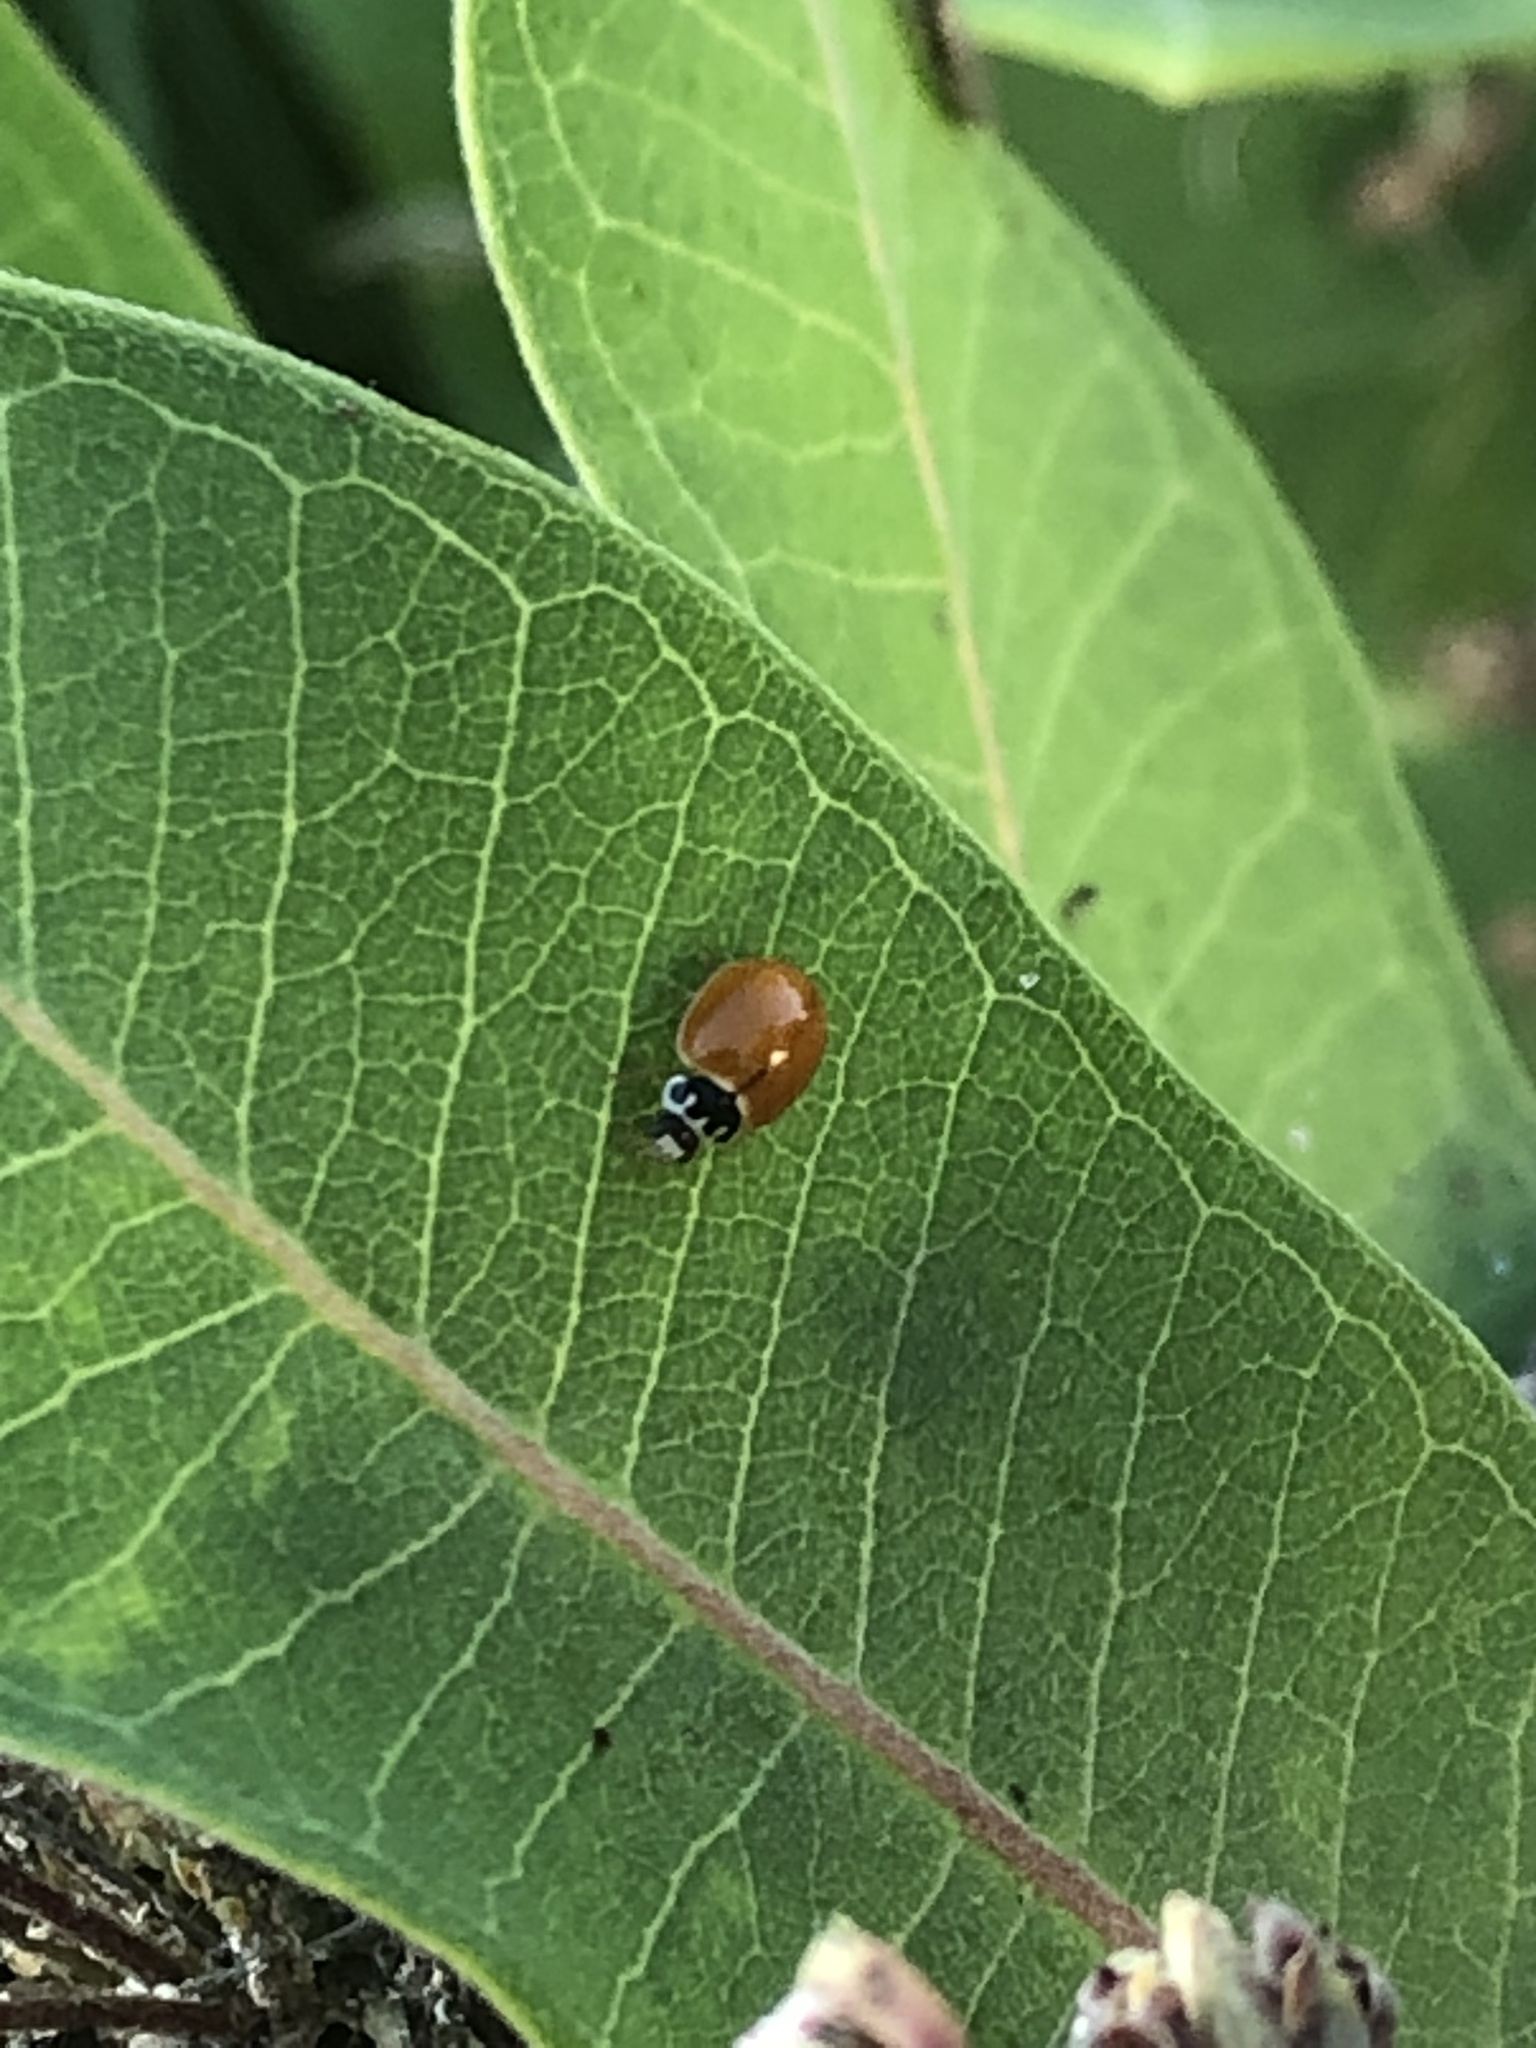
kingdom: Animalia
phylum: Arthropoda
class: Insecta
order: Coleoptera
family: Coccinellidae
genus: Cycloneda
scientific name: Cycloneda munda
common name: Polished lady beetle
